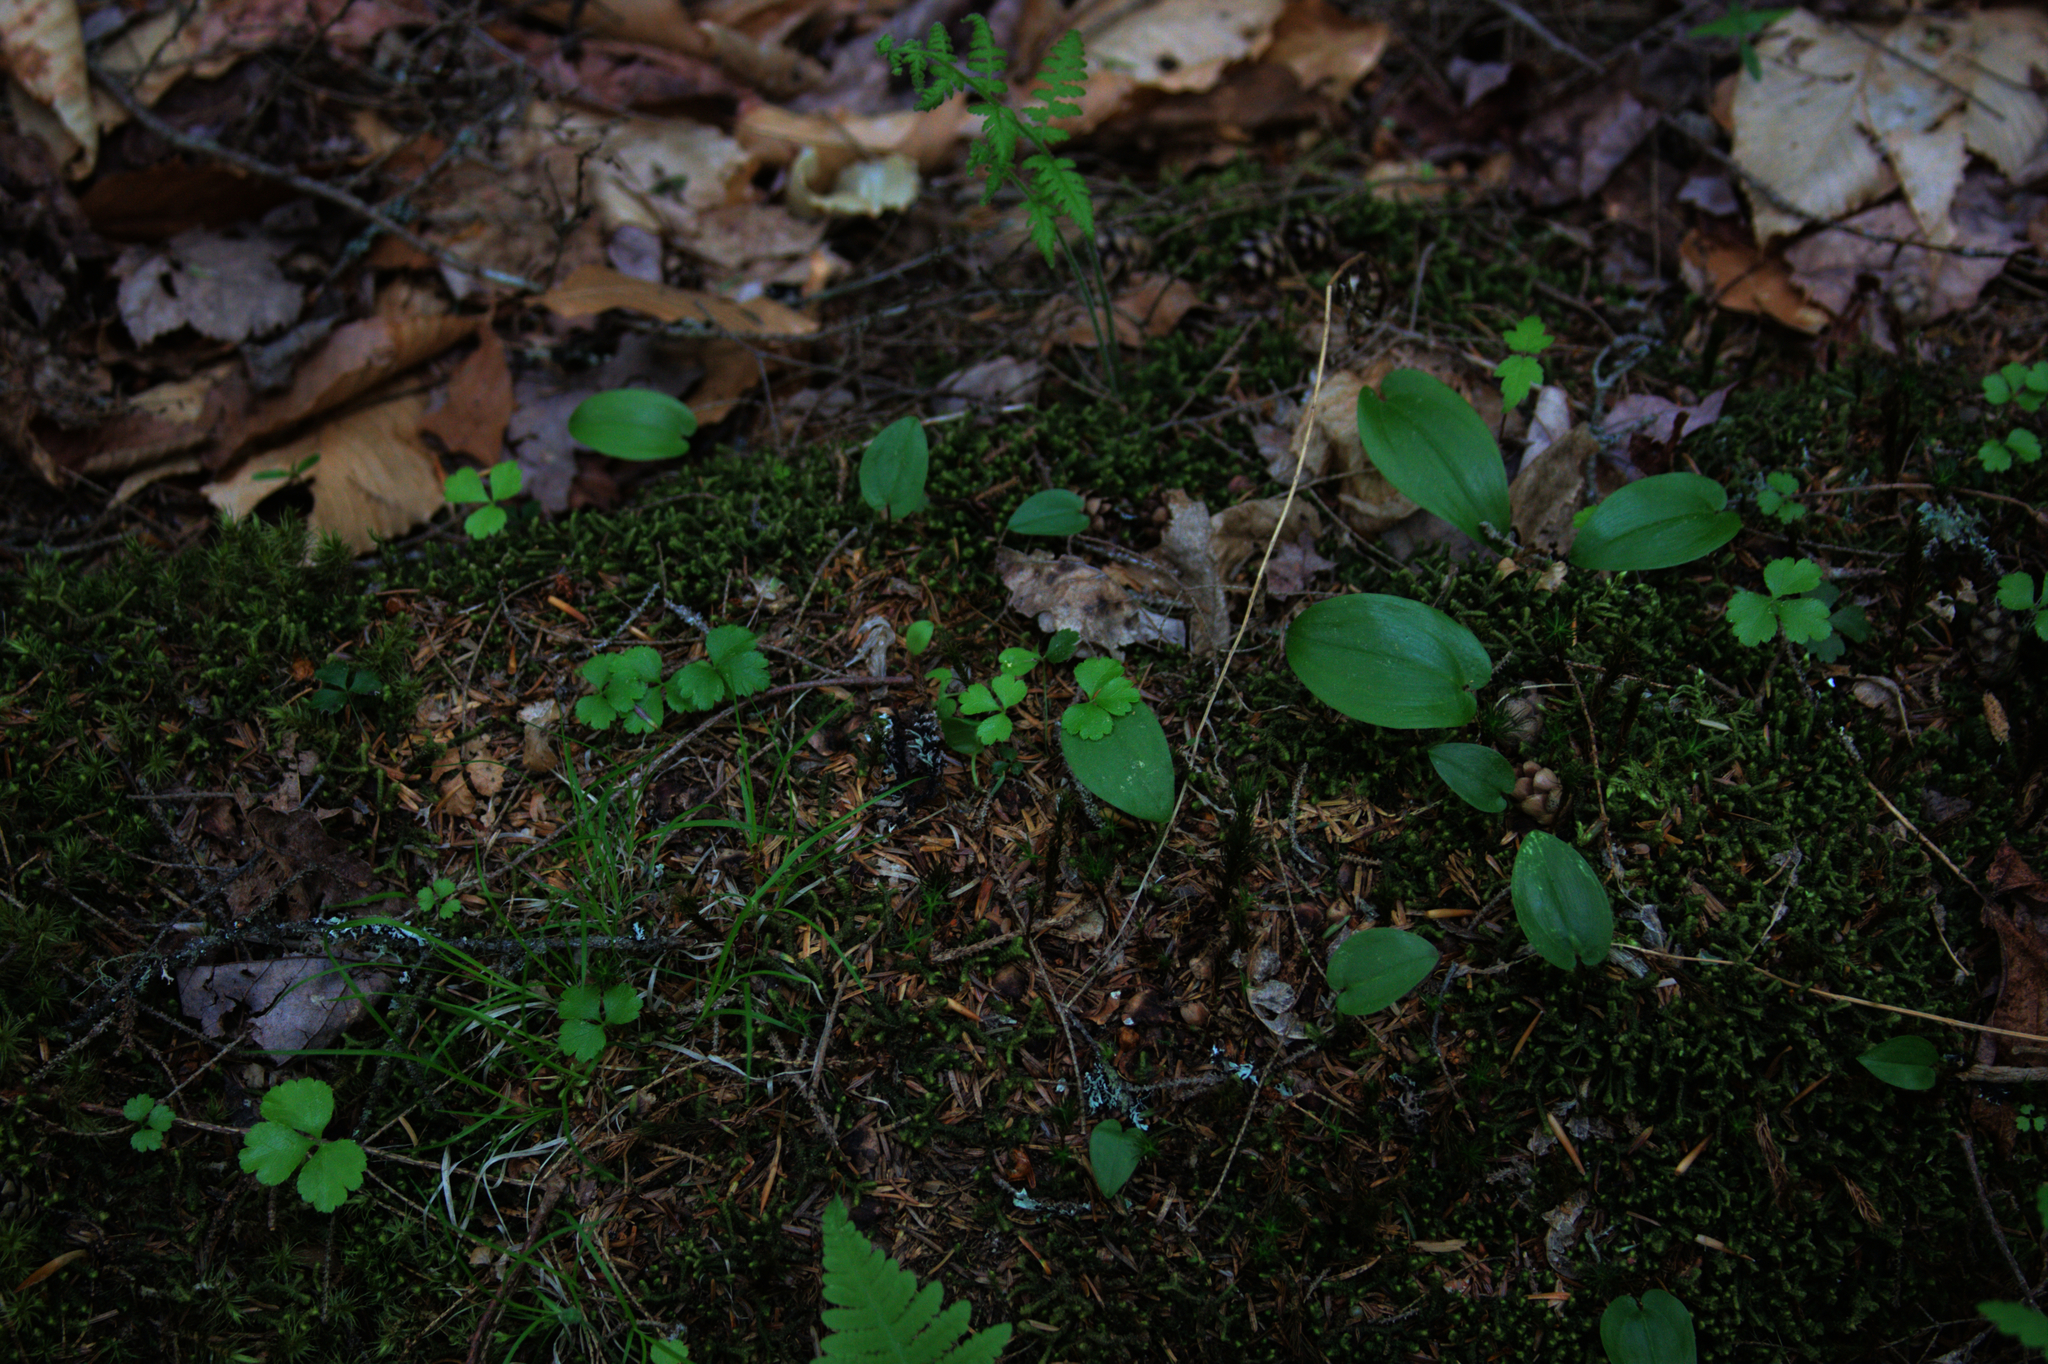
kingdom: Plantae
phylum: Tracheophyta
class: Magnoliopsida
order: Ranunculales
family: Ranunculaceae
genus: Coptis
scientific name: Coptis trifolia
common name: Canker-root
